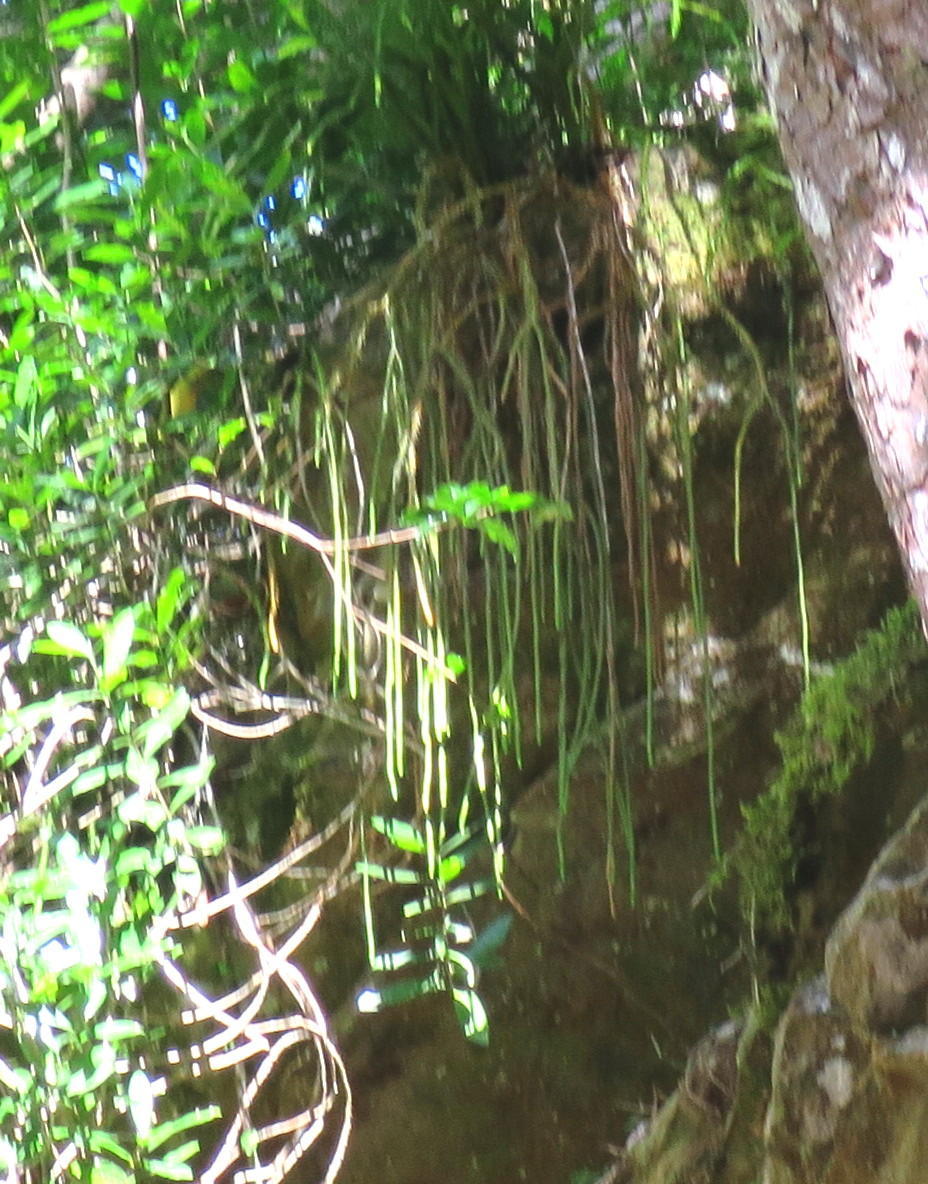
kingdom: Plantae
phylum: Tracheophyta
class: Lycopodiopsida
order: Lycopodiales
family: Lycopodiaceae
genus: Phlegmariurus
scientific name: Phlegmariurus gnidioides
